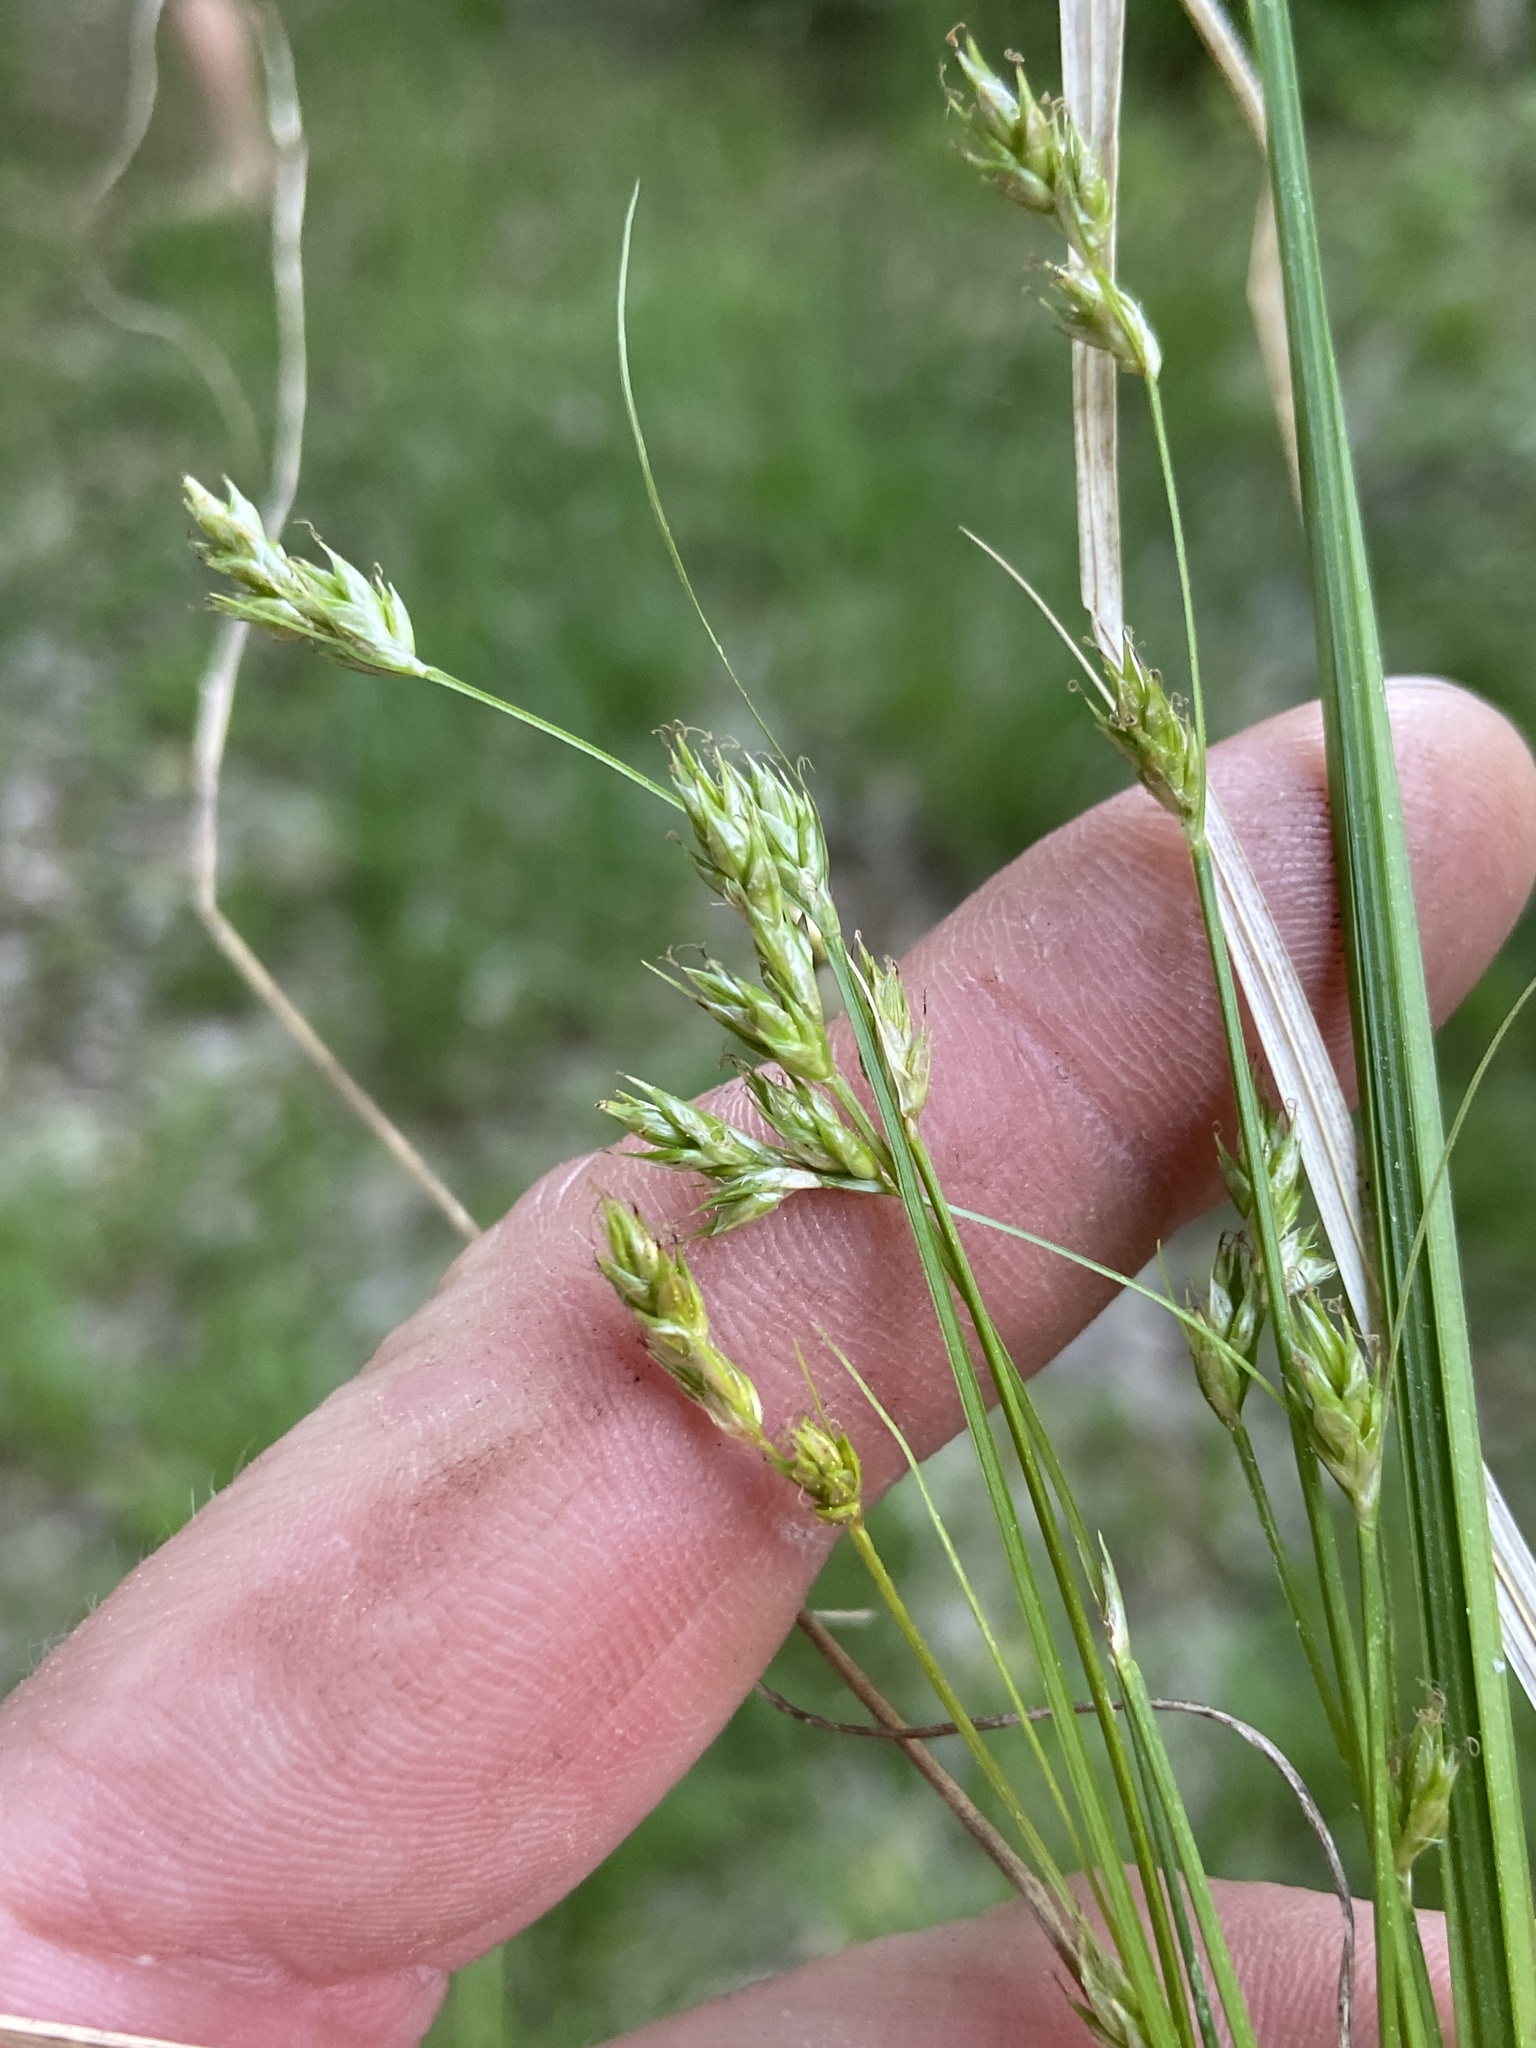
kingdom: Plantae
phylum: Tracheophyta
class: Liliopsida
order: Poales
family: Cyperaceae
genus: Carex
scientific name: Carex deweyana
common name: Dewey's sedge
